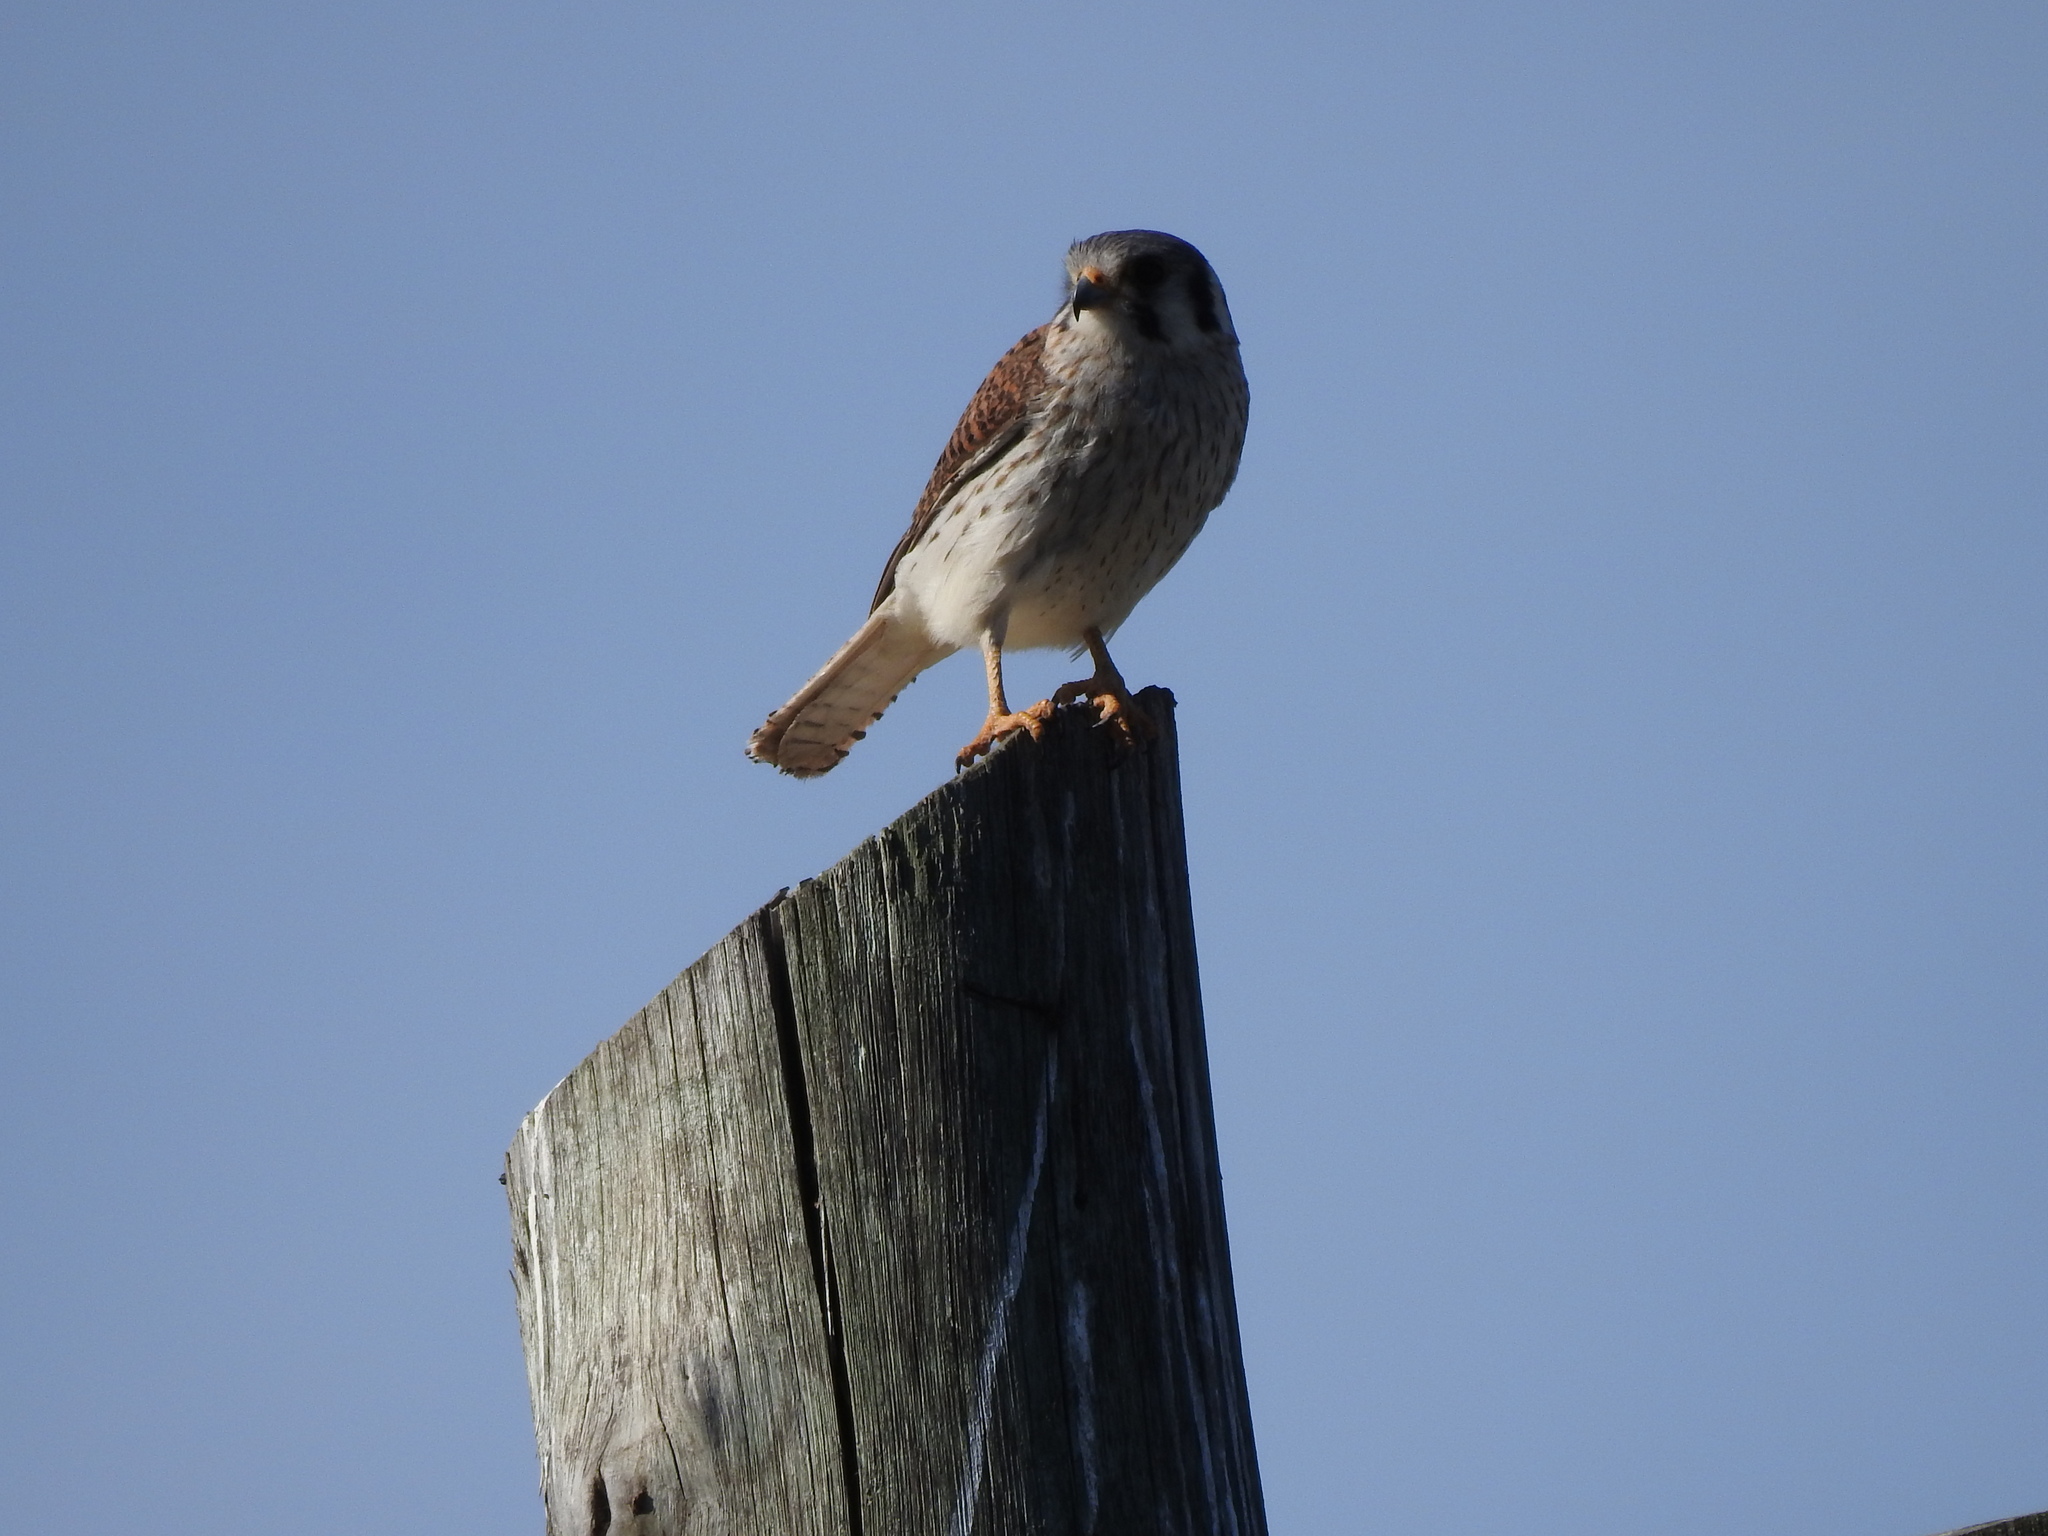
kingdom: Animalia
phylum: Chordata
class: Aves
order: Falconiformes
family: Falconidae
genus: Falco
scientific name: Falco sparverius
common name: American kestrel
